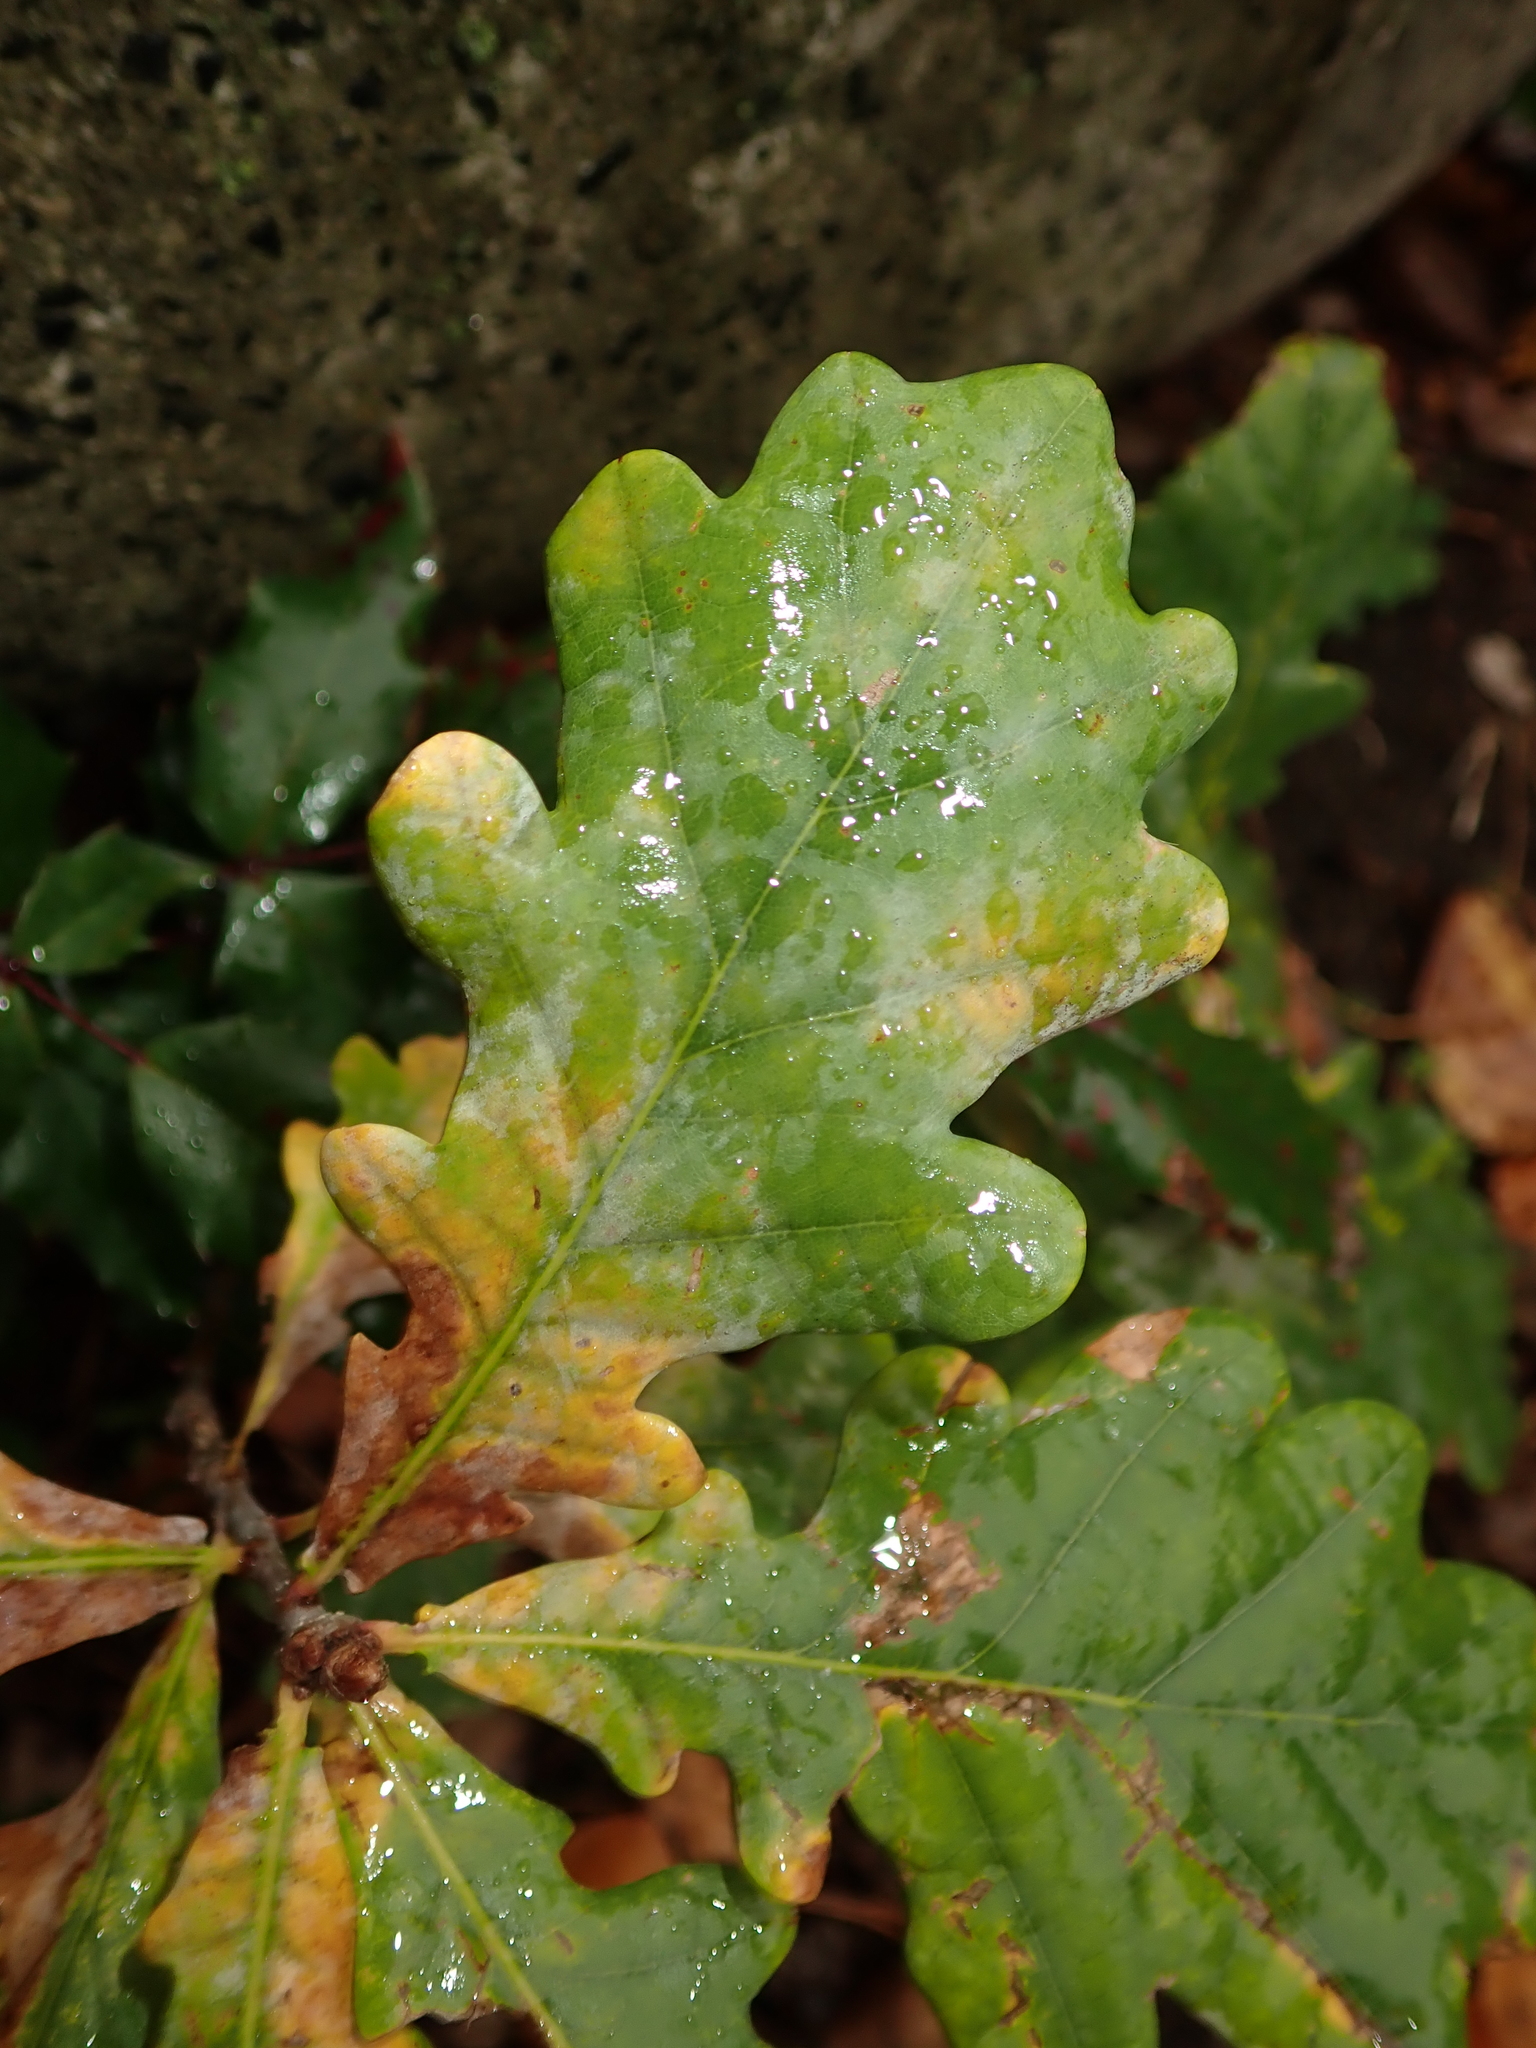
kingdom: Fungi
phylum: Ascomycota
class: Leotiomycetes
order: Helotiales
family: Erysiphaceae
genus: Erysiphe
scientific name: Erysiphe
